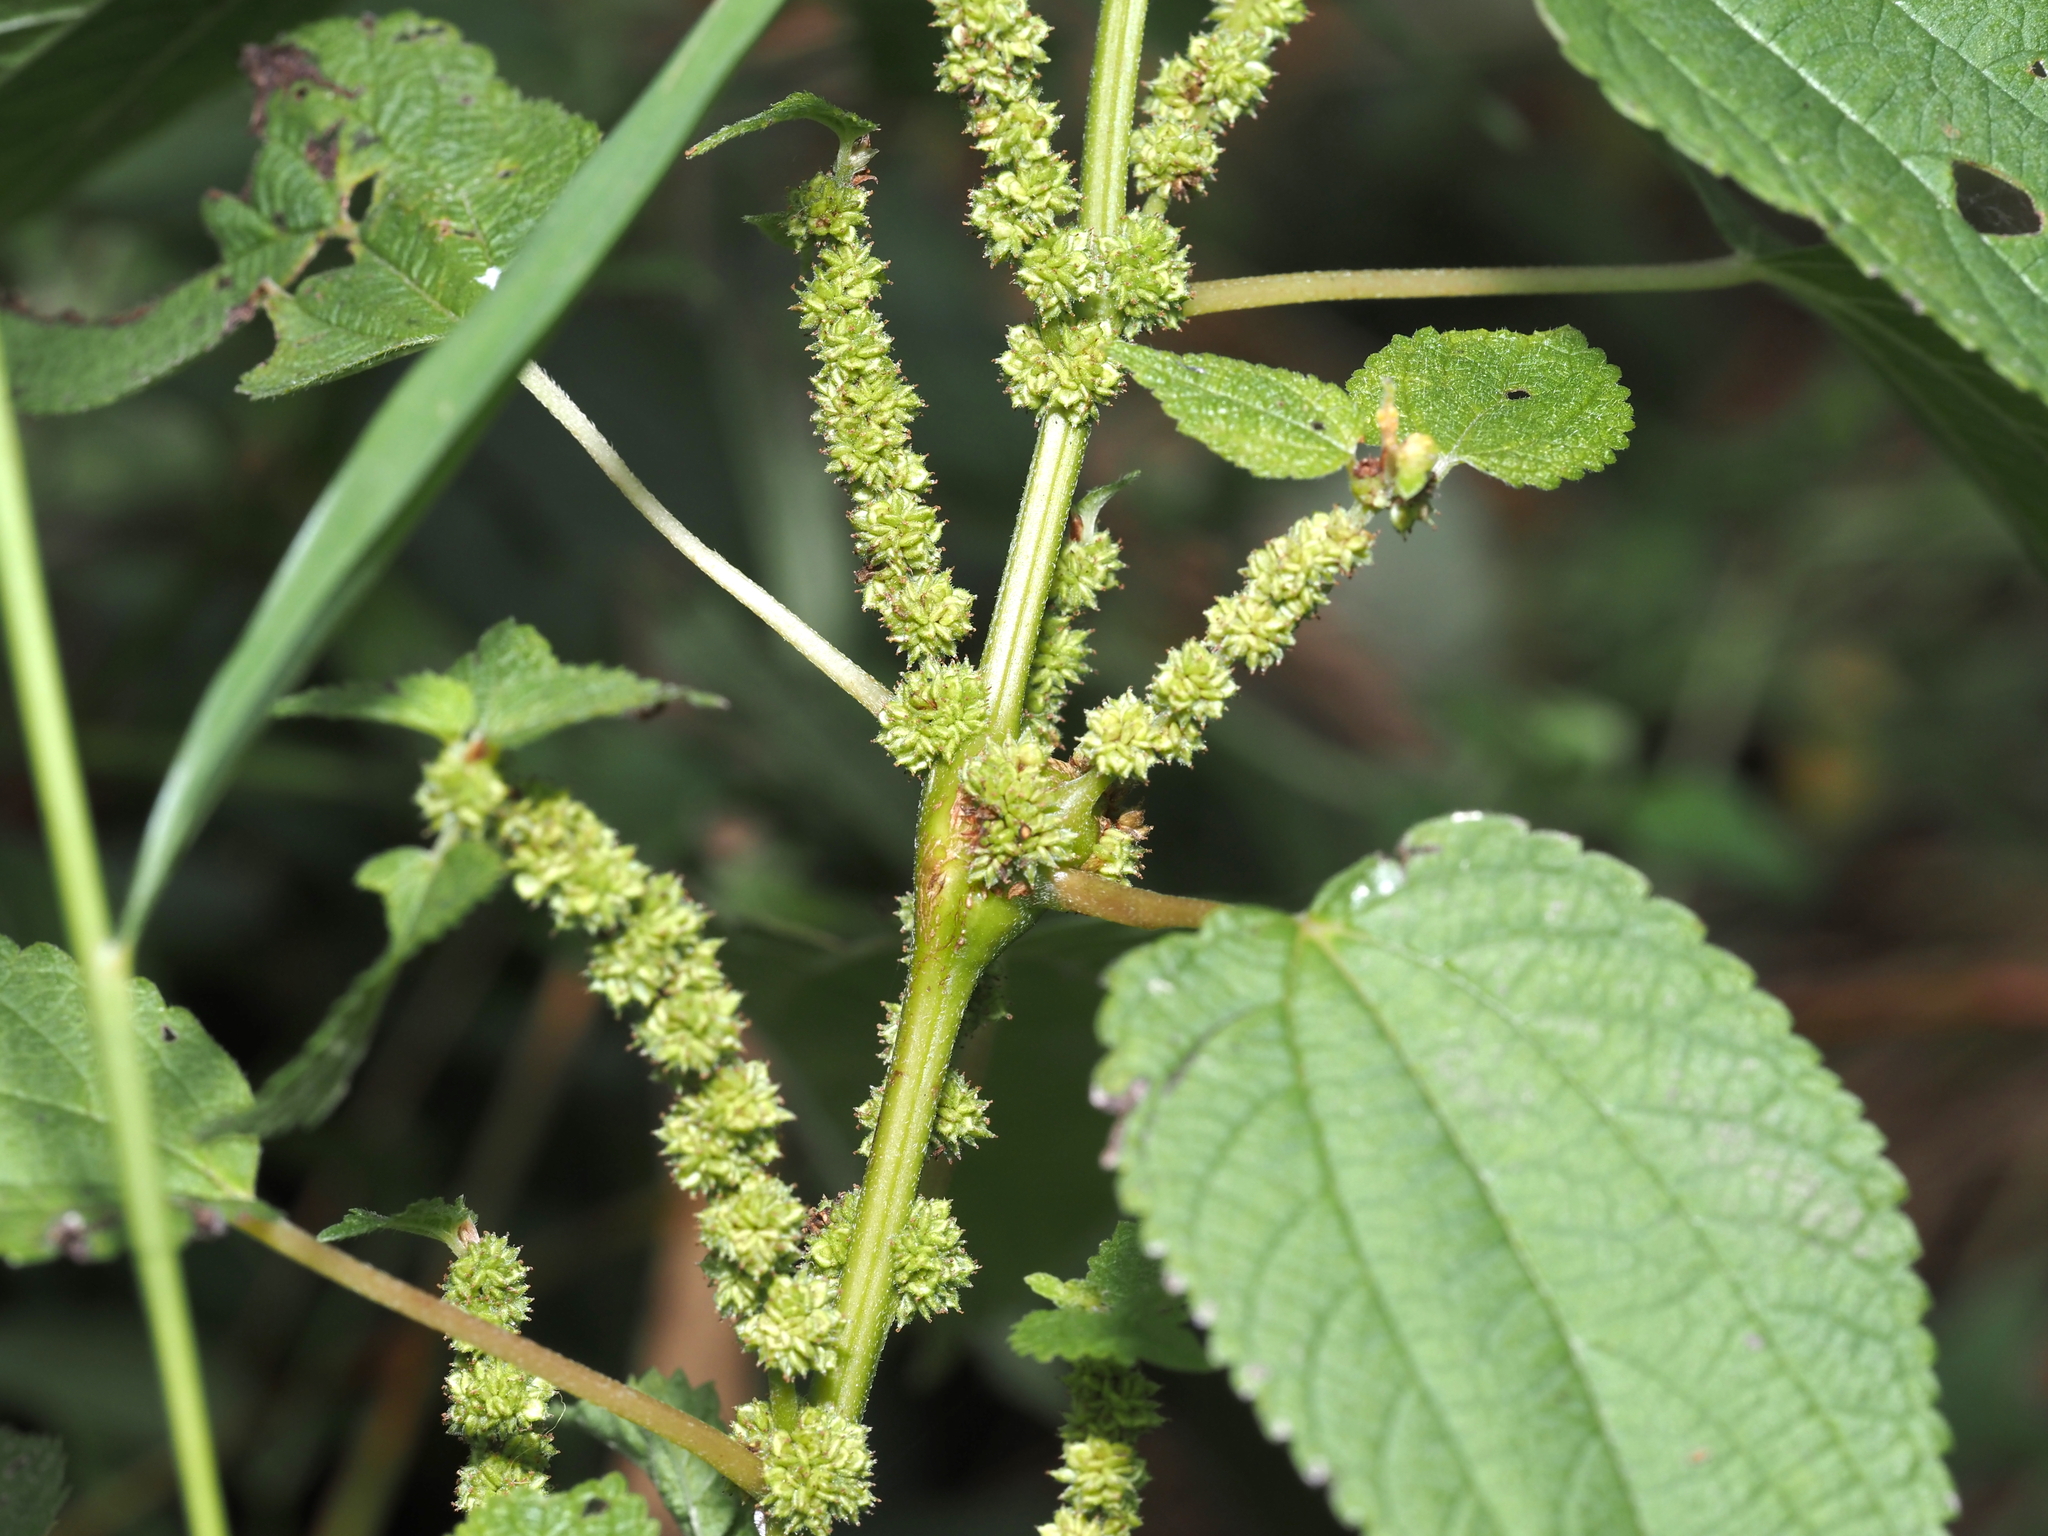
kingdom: Animalia
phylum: Arthropoda
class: Insecta
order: Diptera
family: Cecidomyiidae
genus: Neolasioptera
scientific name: Neolasioptera boehmeriae
